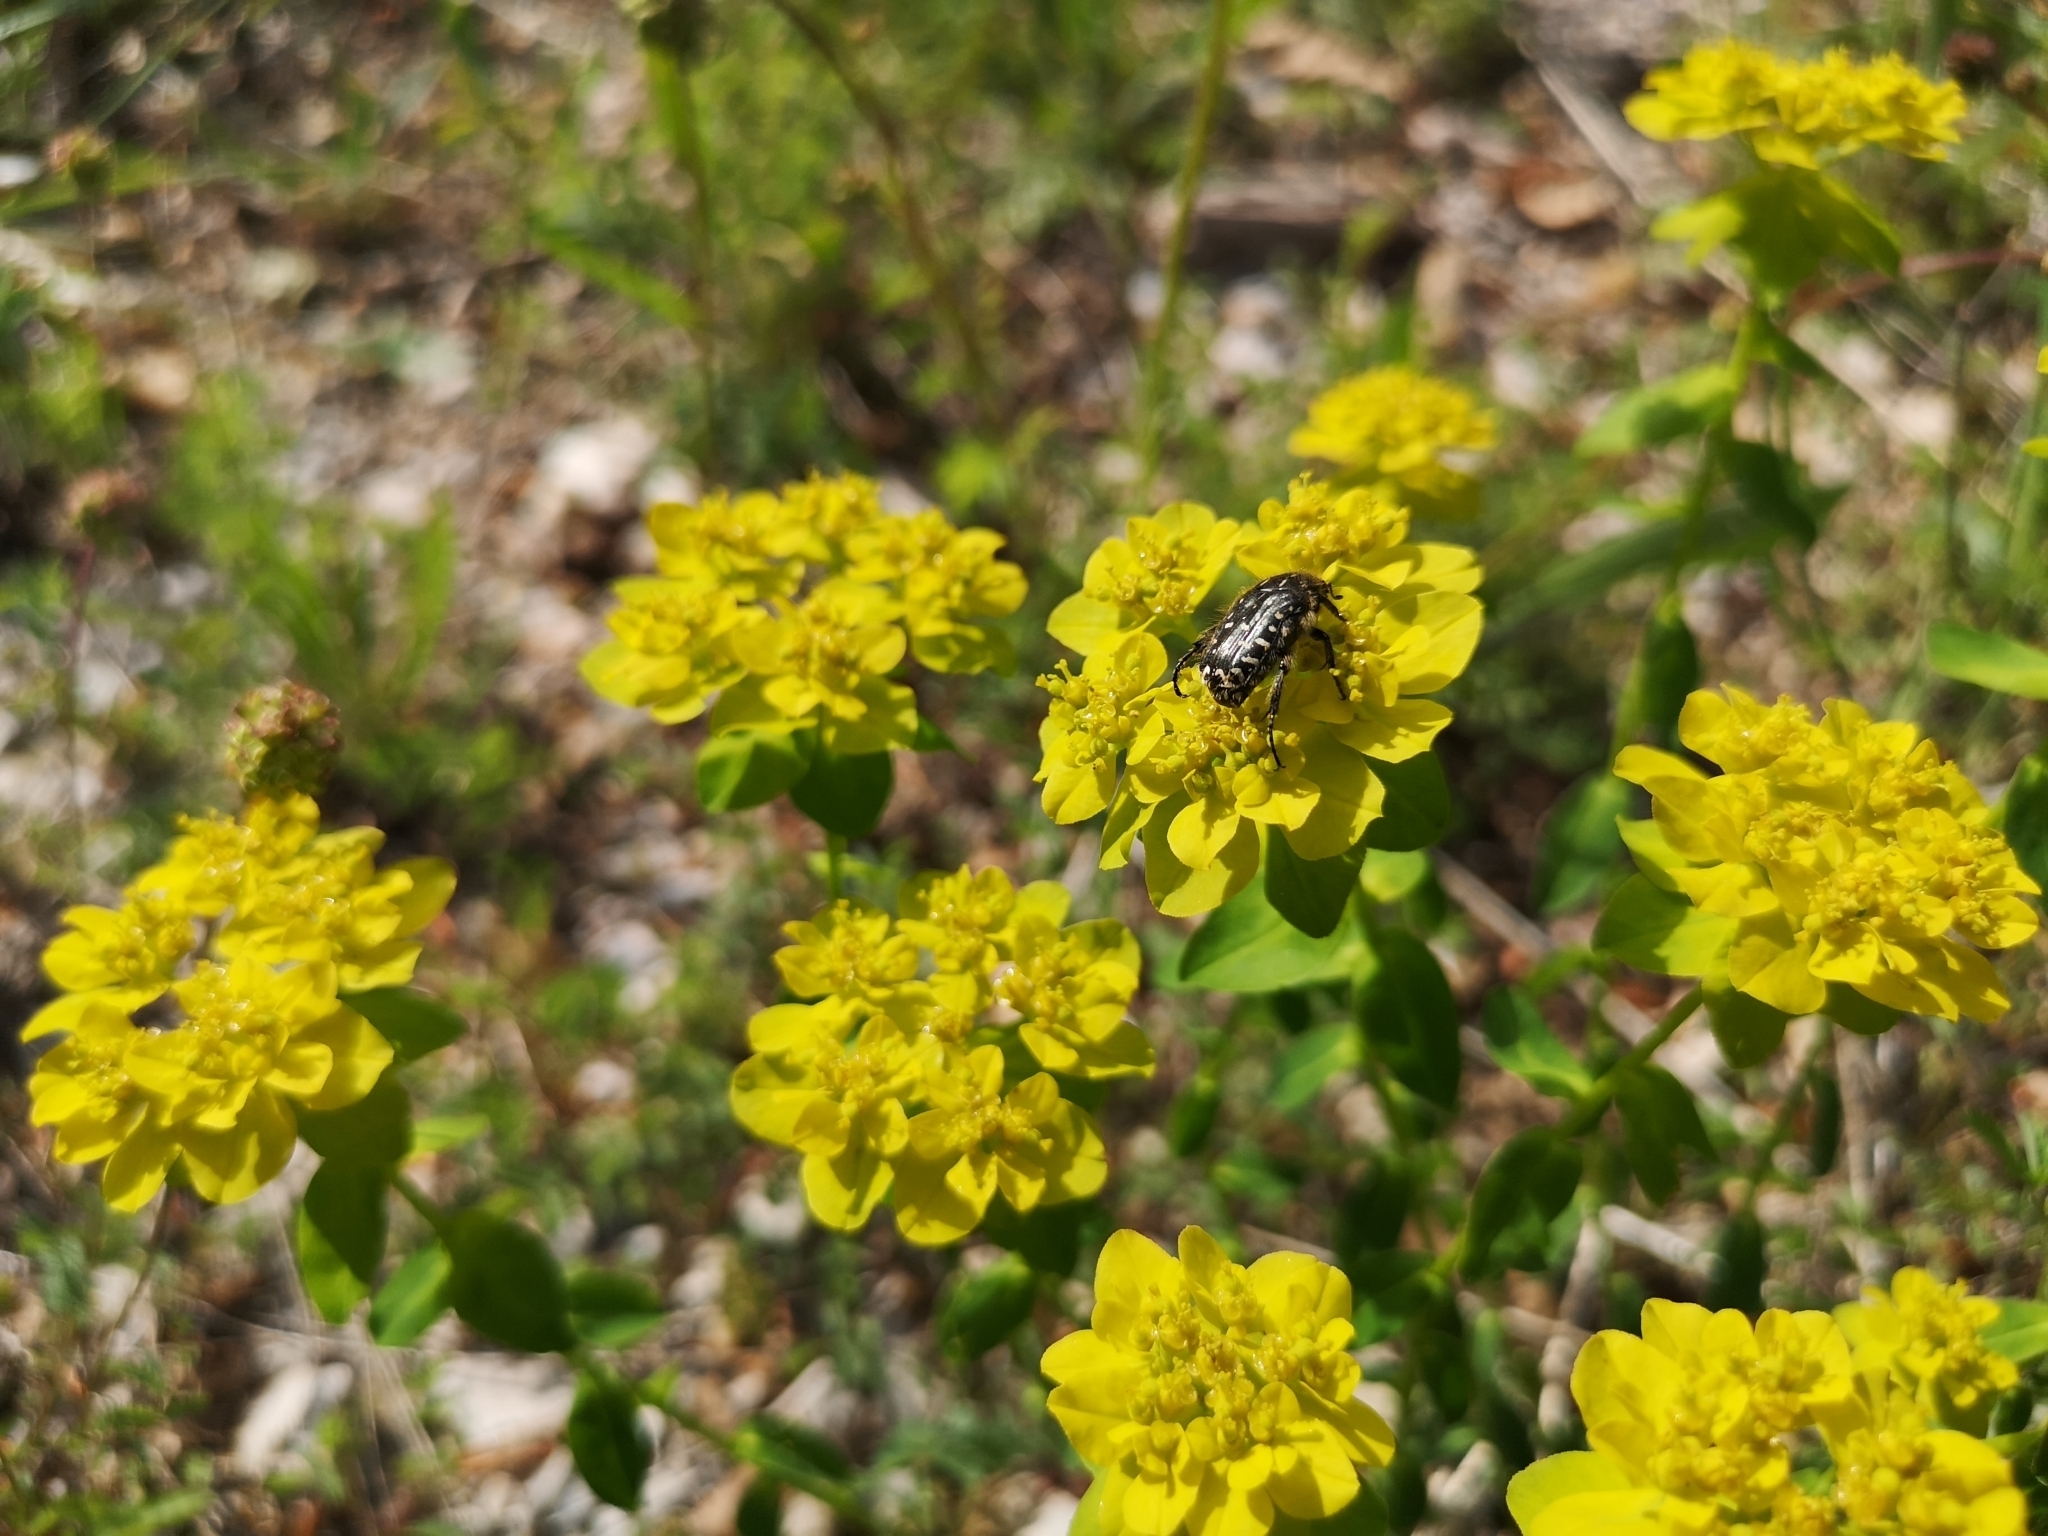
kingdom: Animalia
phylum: Arthropoda
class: Insecta
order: Coleoptera
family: Scarabaeidae
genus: Oxythyrea
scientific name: Oxythyrea funesta
